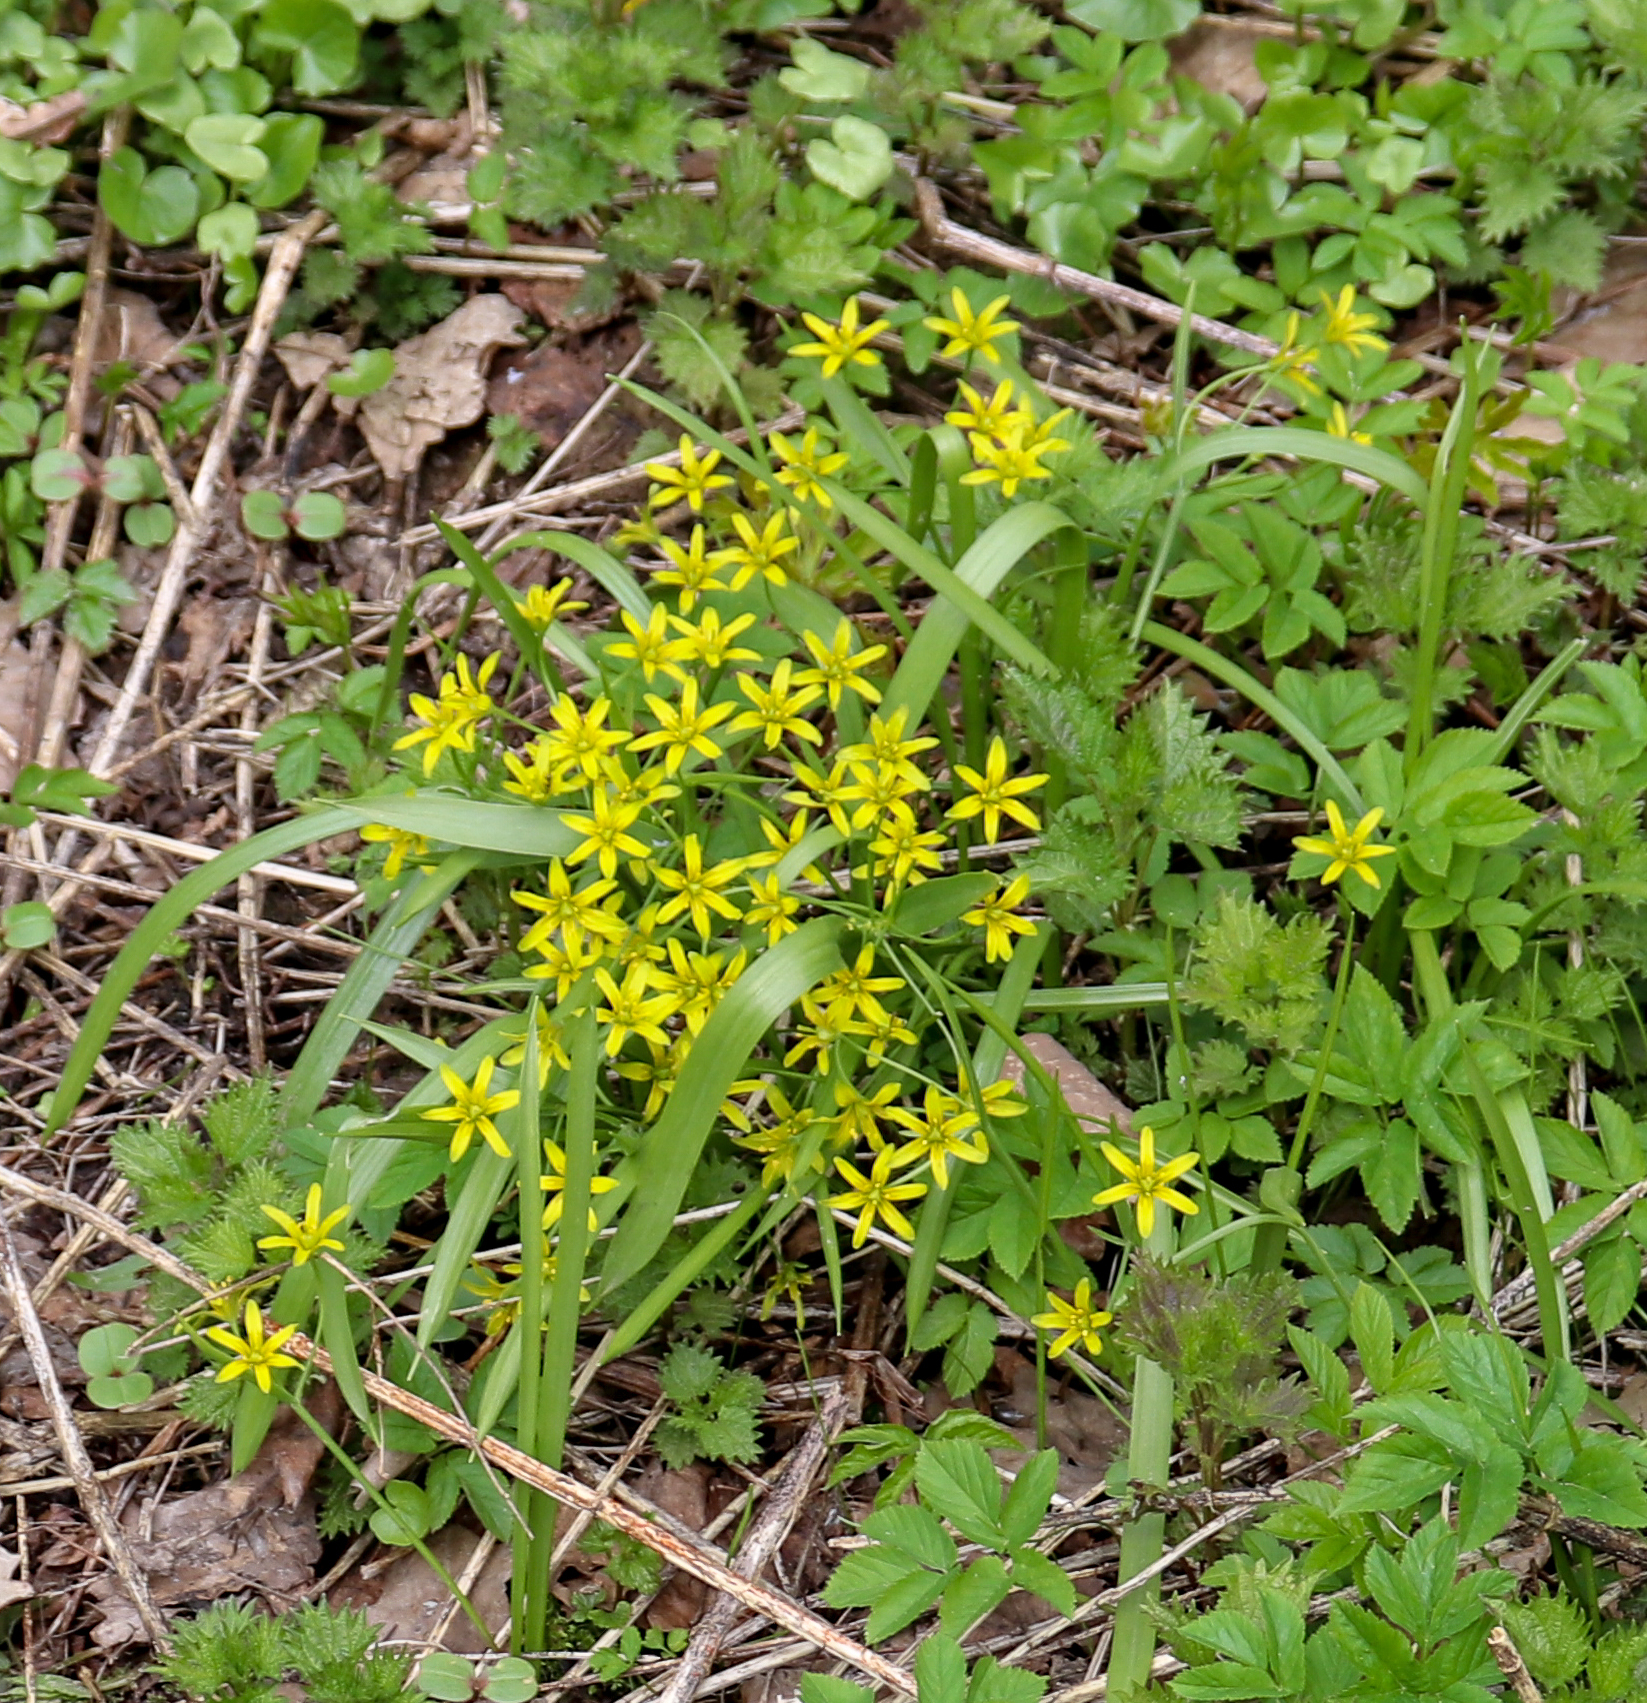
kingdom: Plantae
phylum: Tracheophyta
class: Liliopsida
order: Liliales
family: Liliaceae
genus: Gagea
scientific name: Gagea lutea
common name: Yellow star-of-bethlehem
